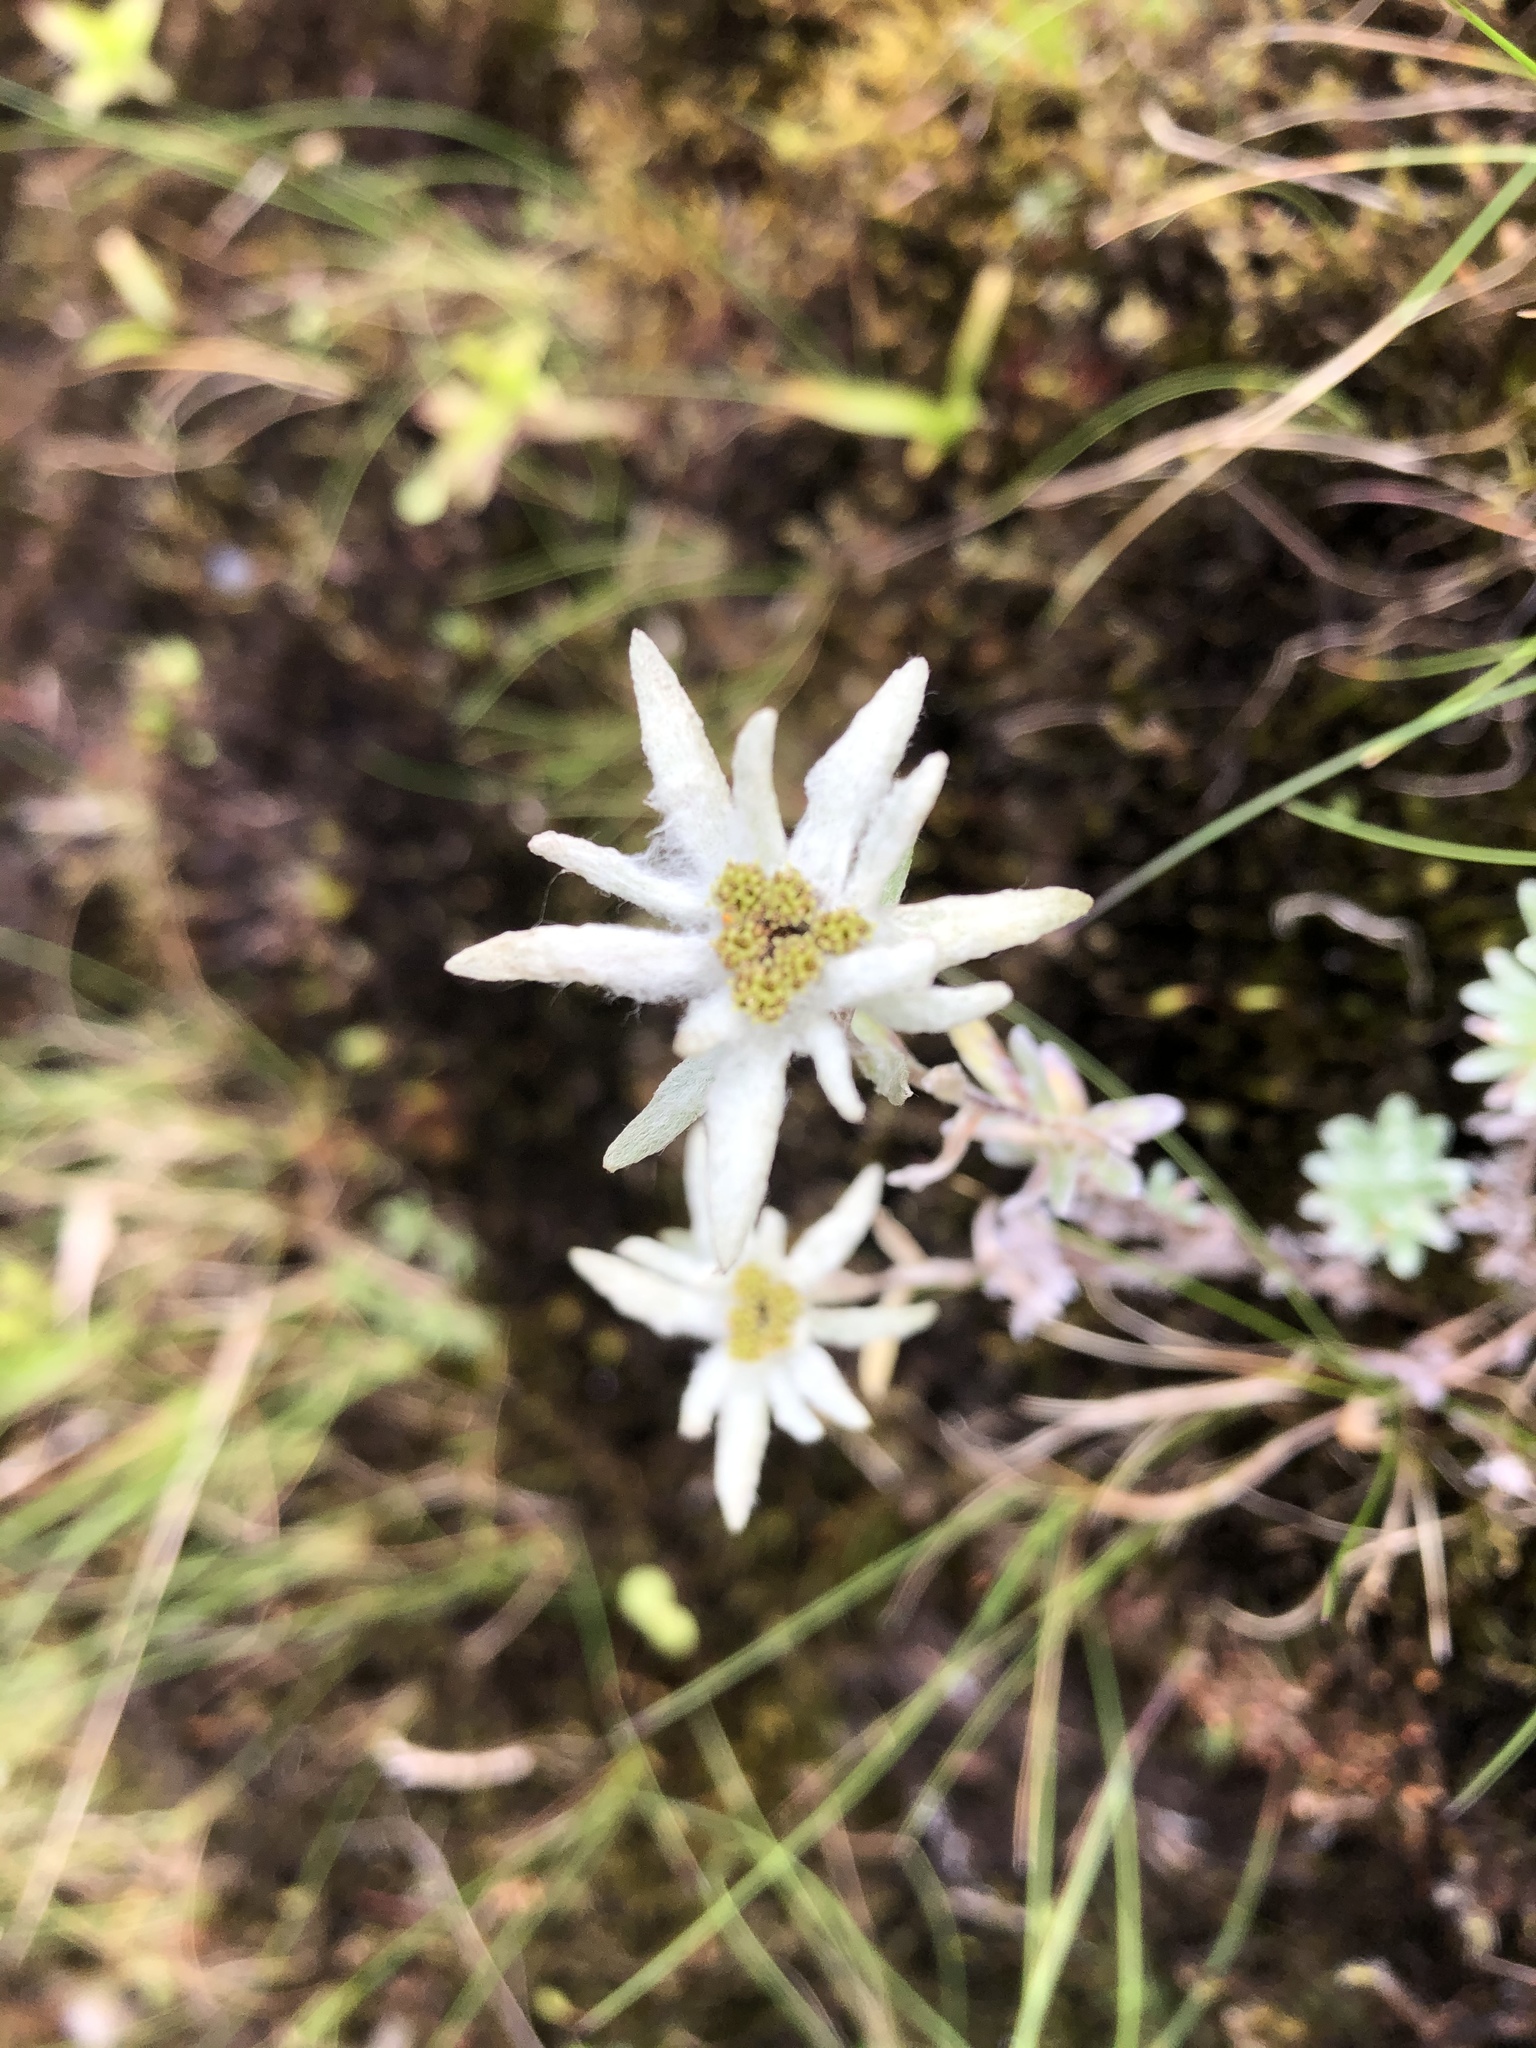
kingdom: Plantae
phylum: Tracheophyta
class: Magnoliopsida
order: Asterales
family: Asteraceae
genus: Leontopodium
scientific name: Leontopodium microphyllum
